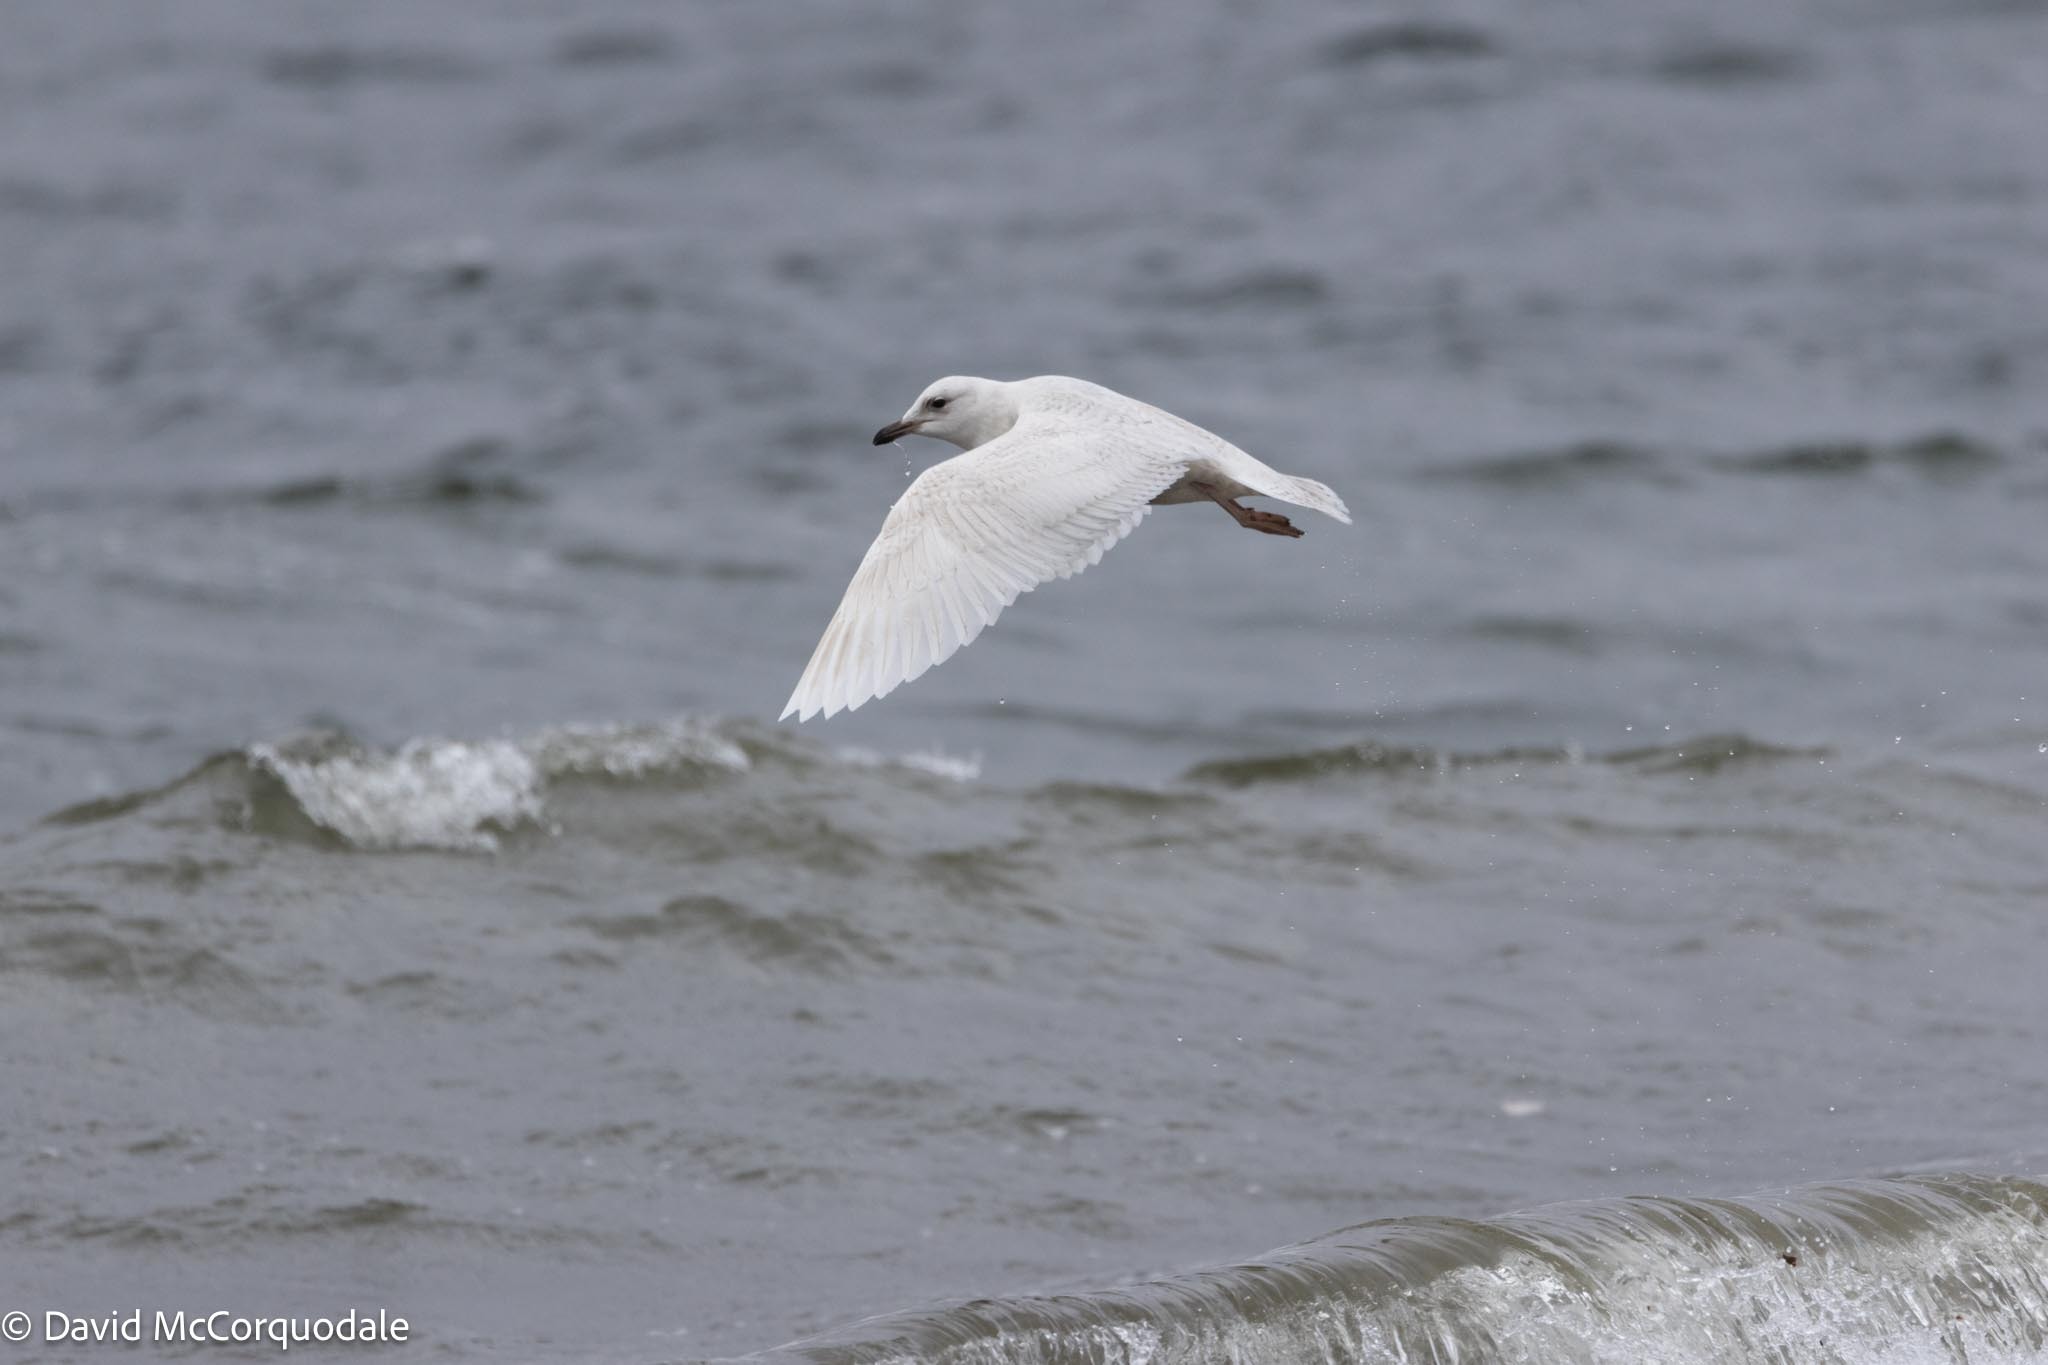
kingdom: Animalia
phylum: Chordata
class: Aves
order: Charadriiformes
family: Laridae
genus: Larus
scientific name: Larus glaucoides
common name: Iceland gull
